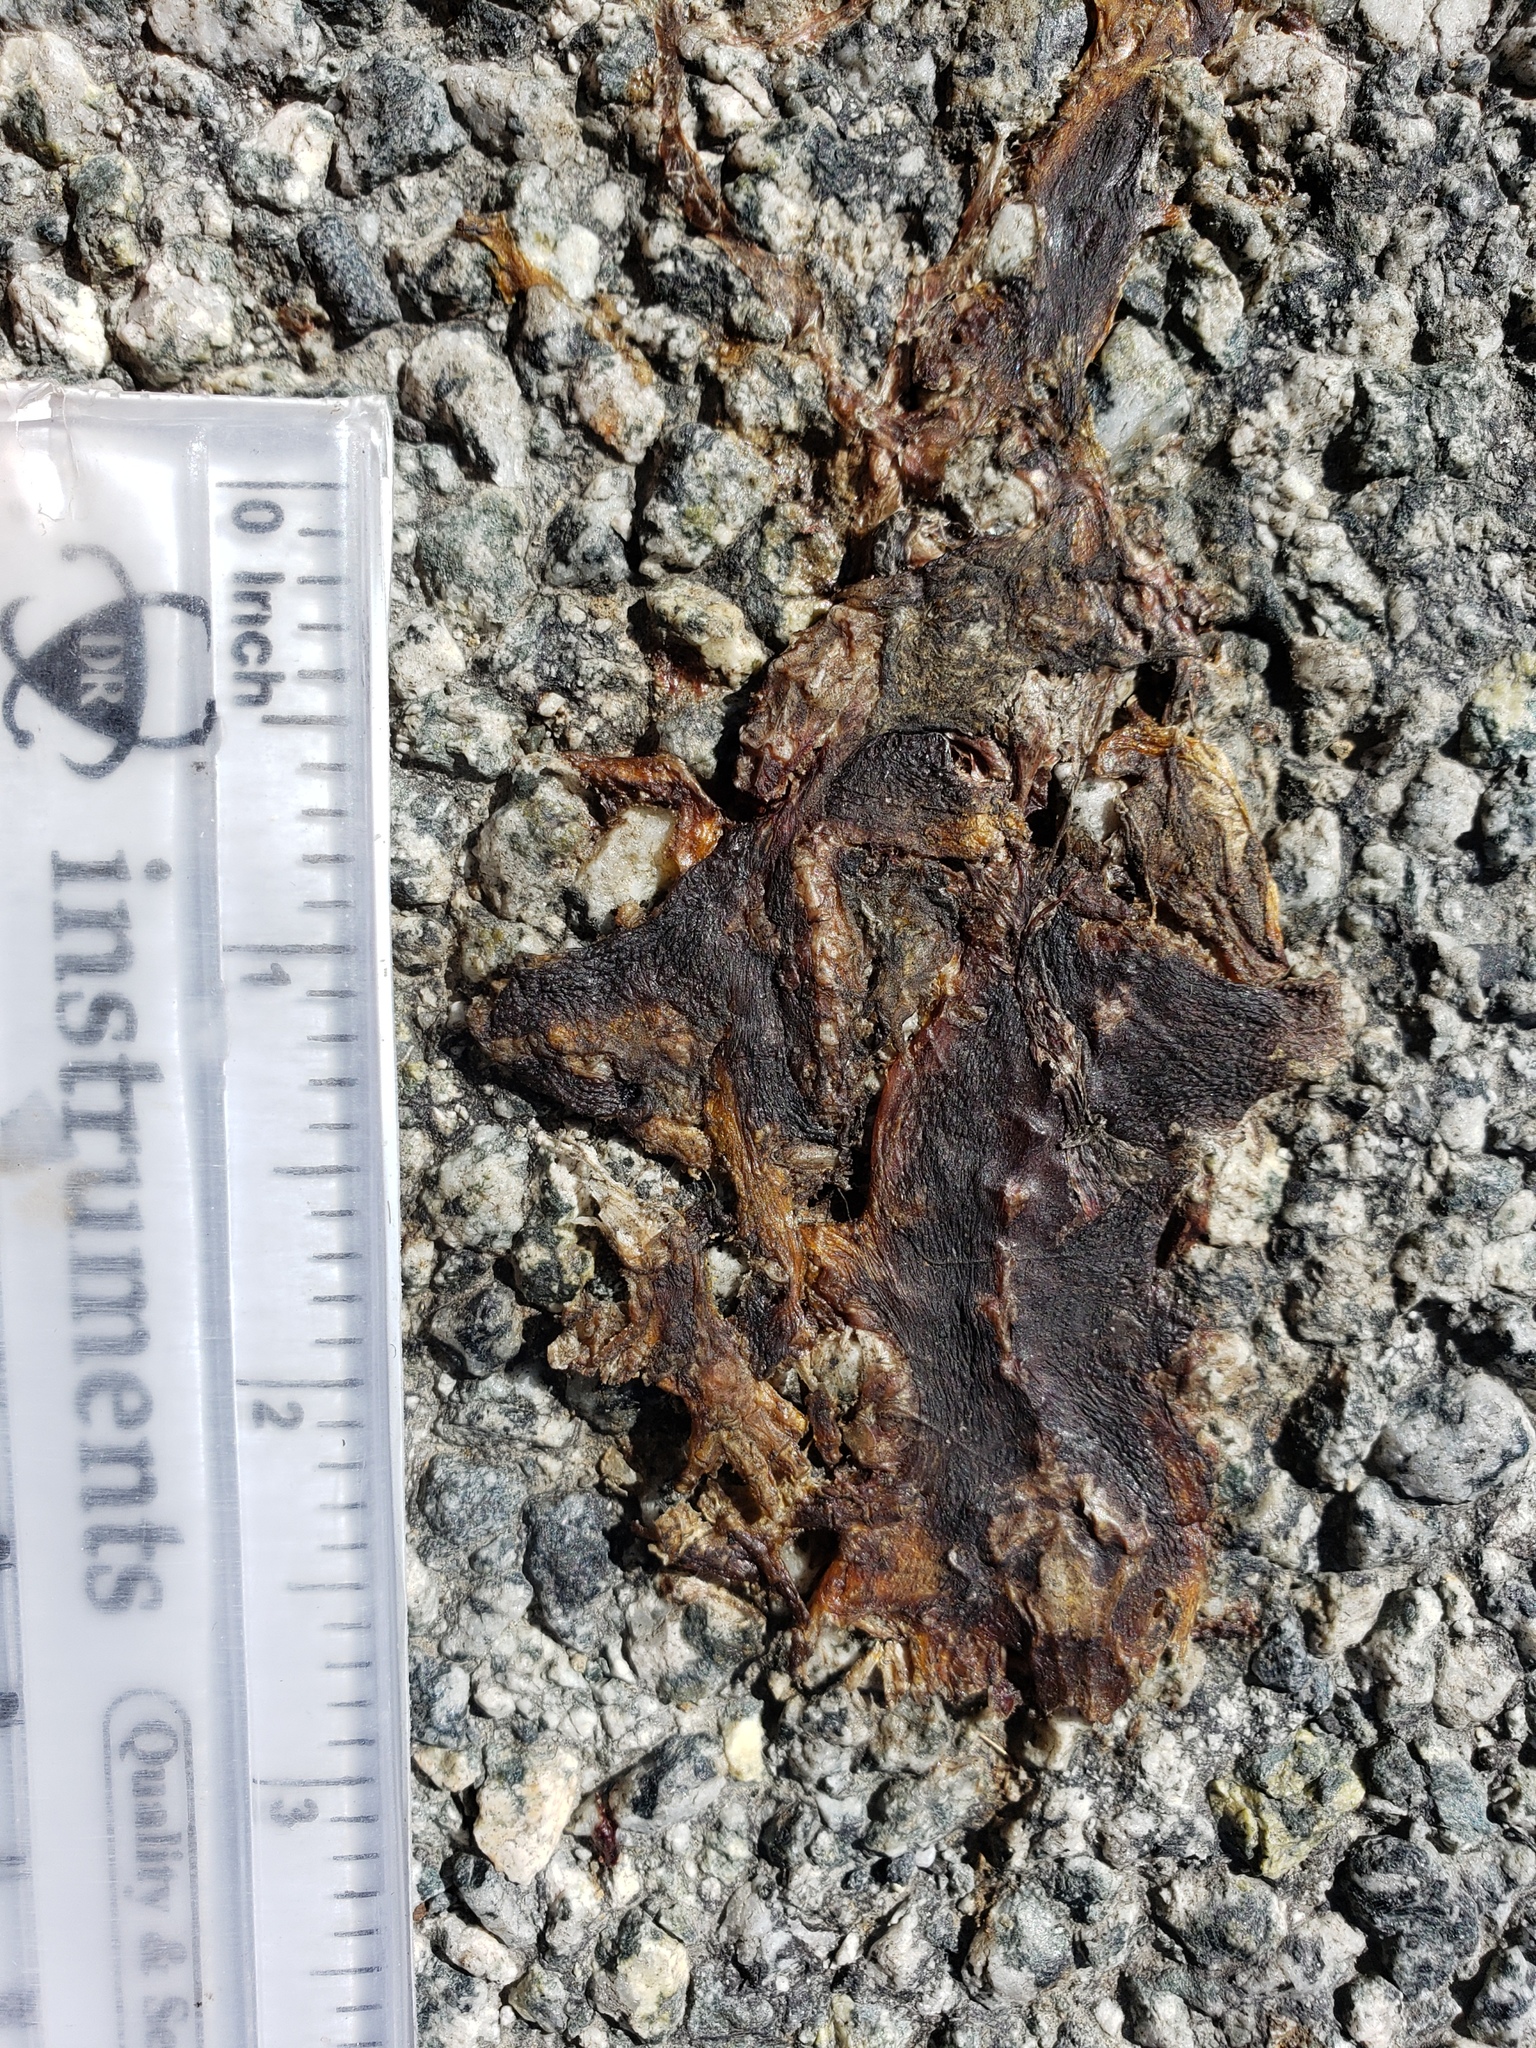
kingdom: Animalia
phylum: Chordata
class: Amphibia
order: Caudata
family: Salamandridae
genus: Taricha
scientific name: Taricha
